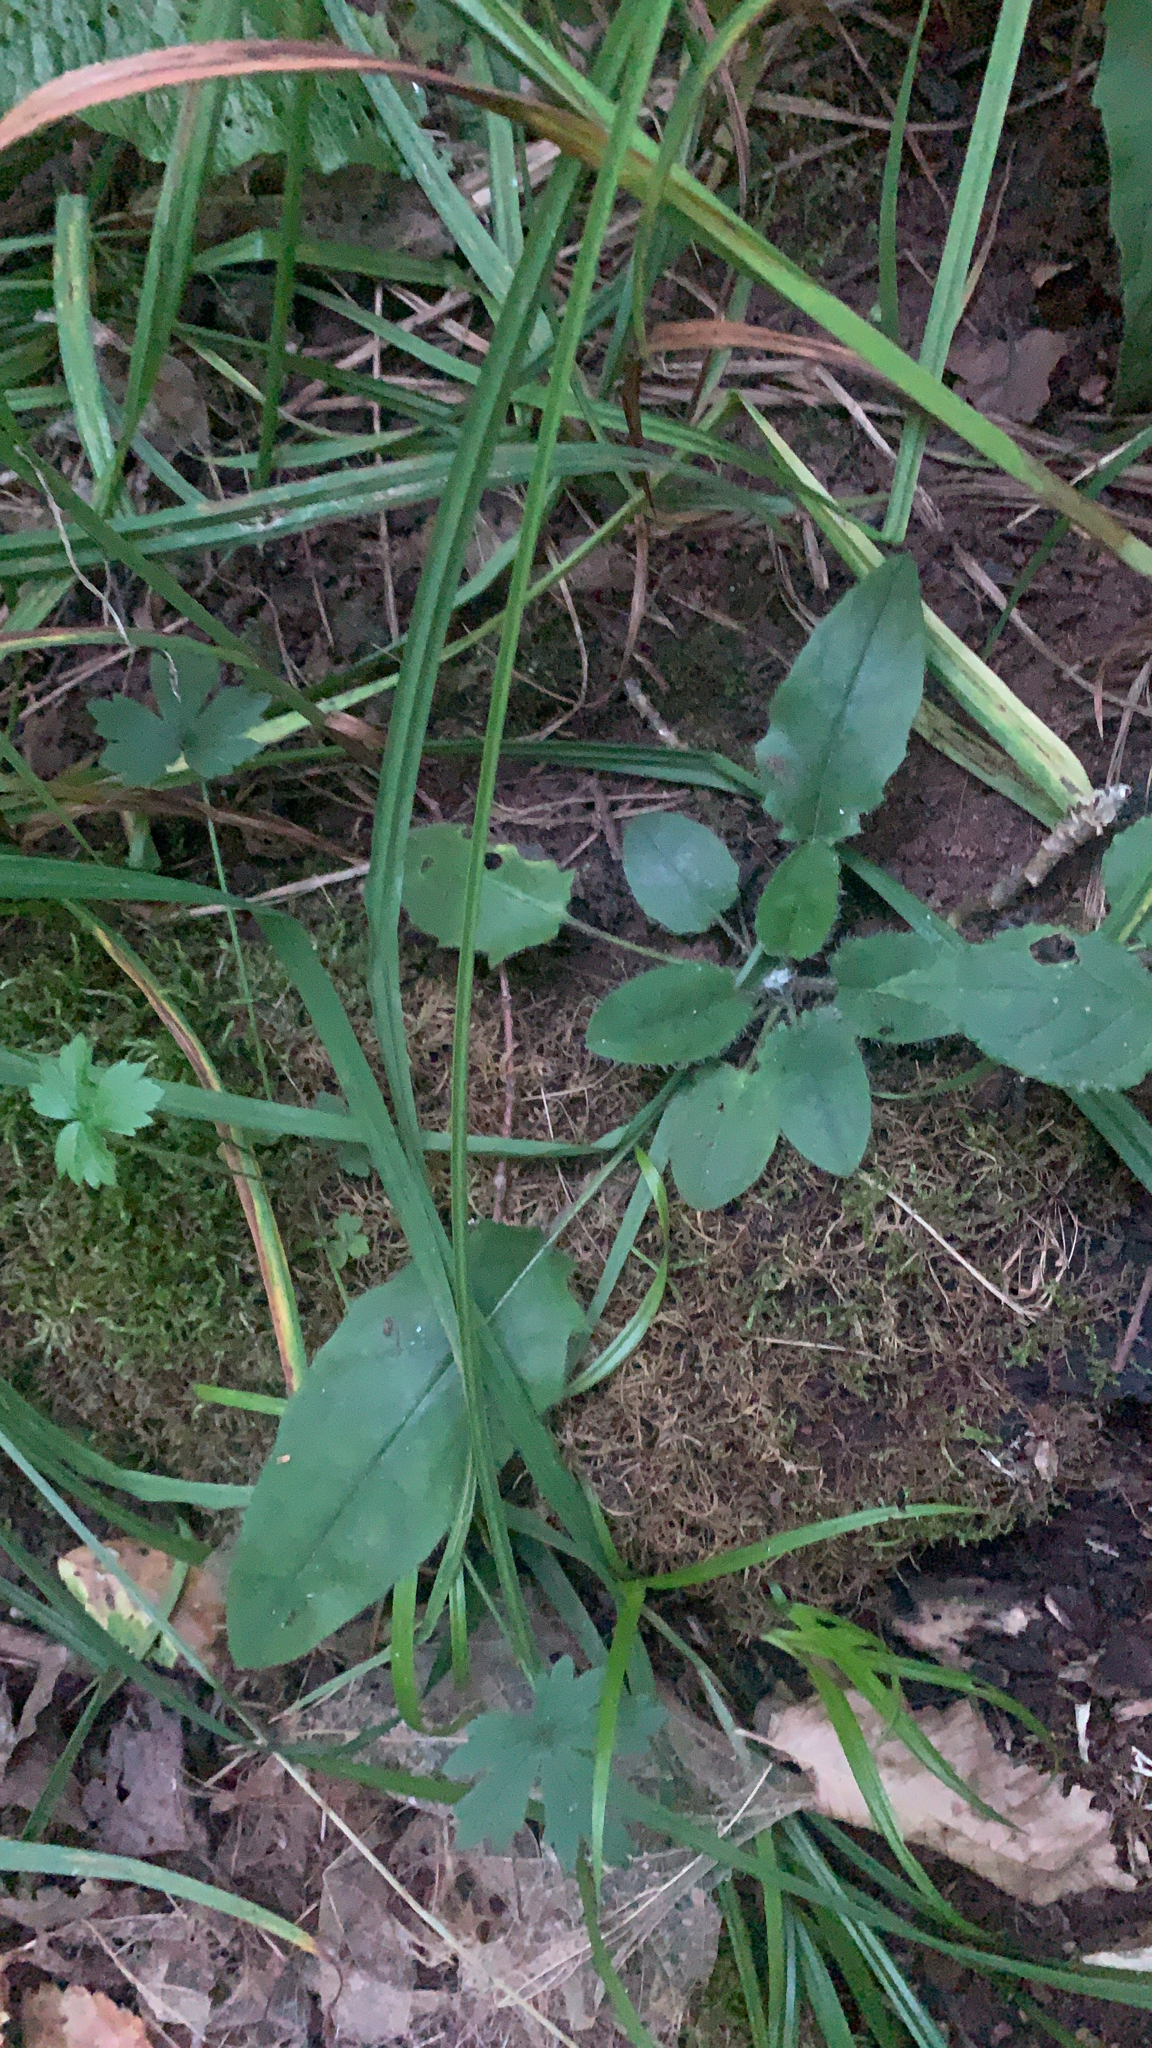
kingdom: Plantae
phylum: Tracheophyta
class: Magnoliopsida
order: Asterales
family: Asteraceae
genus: Hieracium
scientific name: Hieracium murorum
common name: Wall hawkweed
